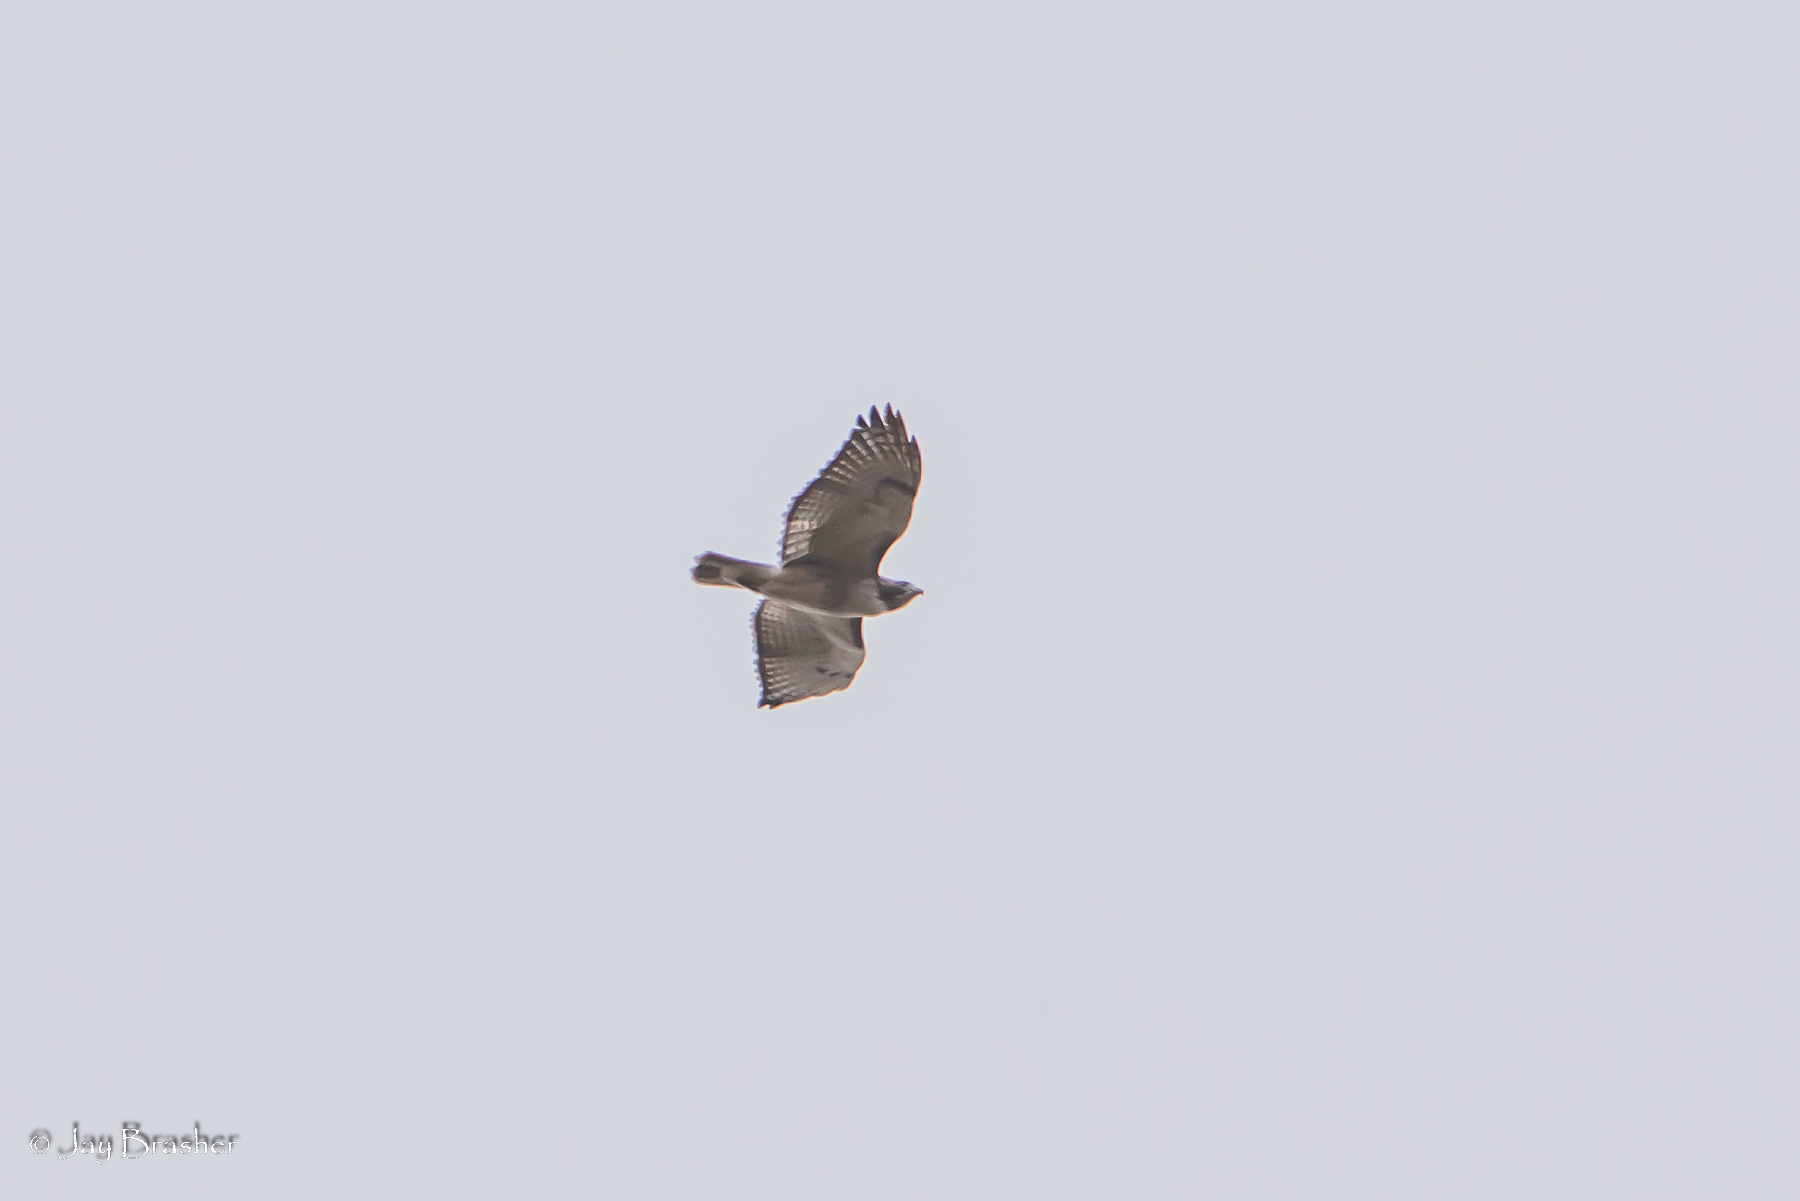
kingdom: Animalia
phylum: Chordata
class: Aves
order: Accipitriformes
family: Accipitridae
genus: Buteo
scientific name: Buteo jamaicensis
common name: Red-tailed hawk
